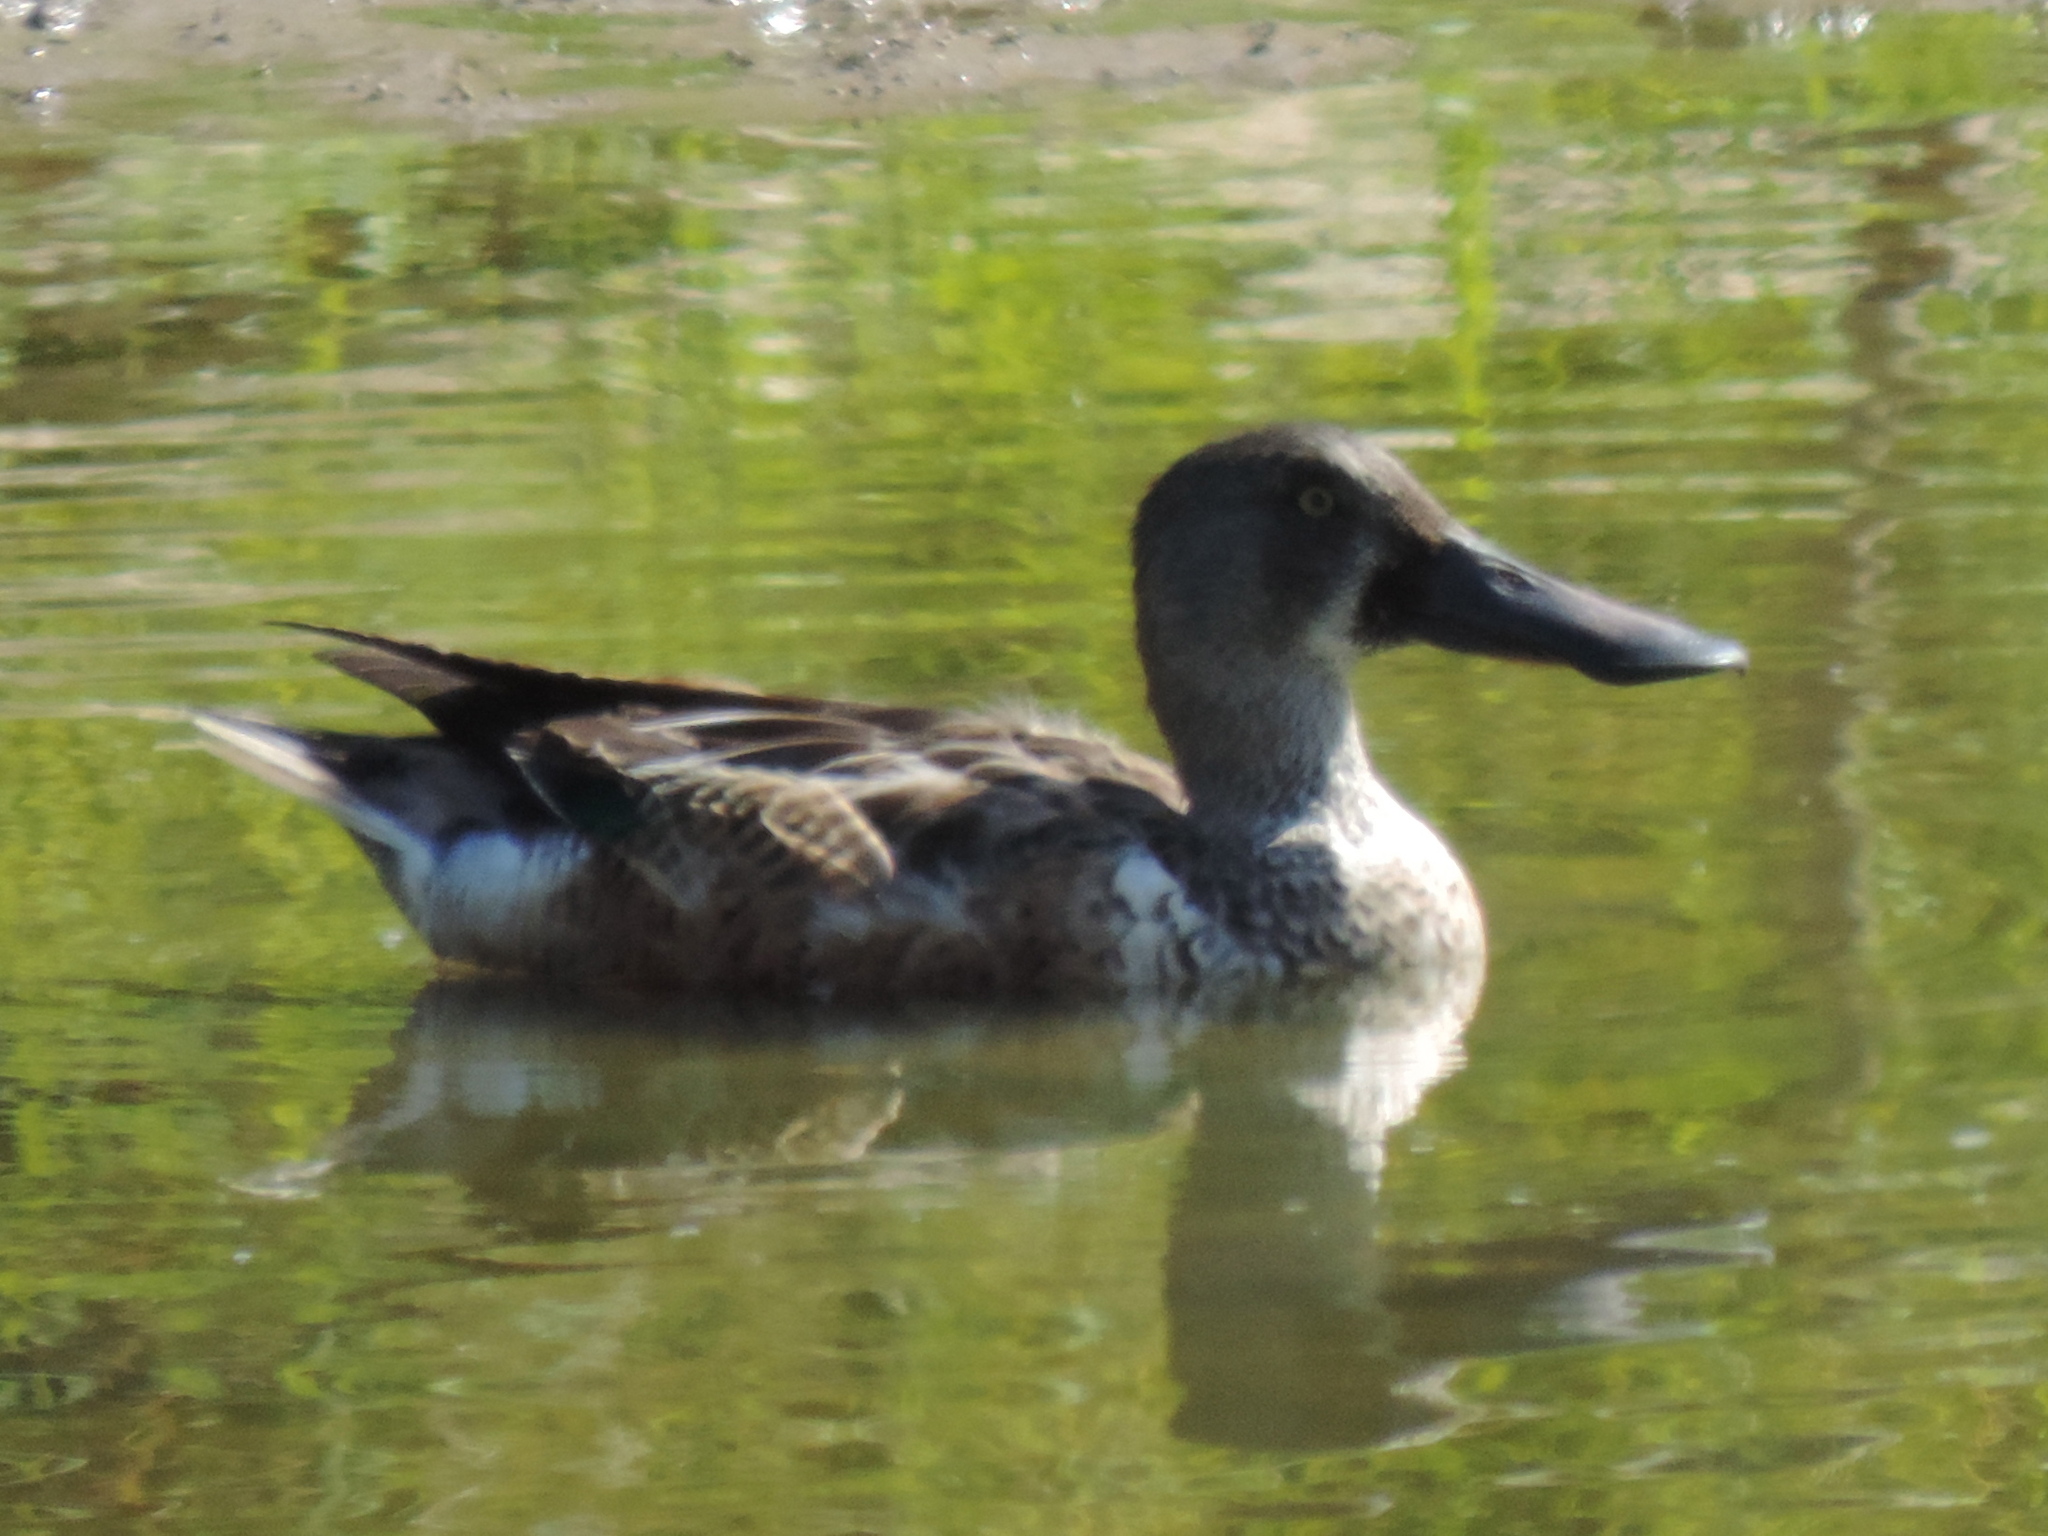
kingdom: Animalia
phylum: Chordata
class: Aves
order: Anseriformes
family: Anatidae
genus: Spatula
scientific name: Spatula clypeata
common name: Northern shoveler
